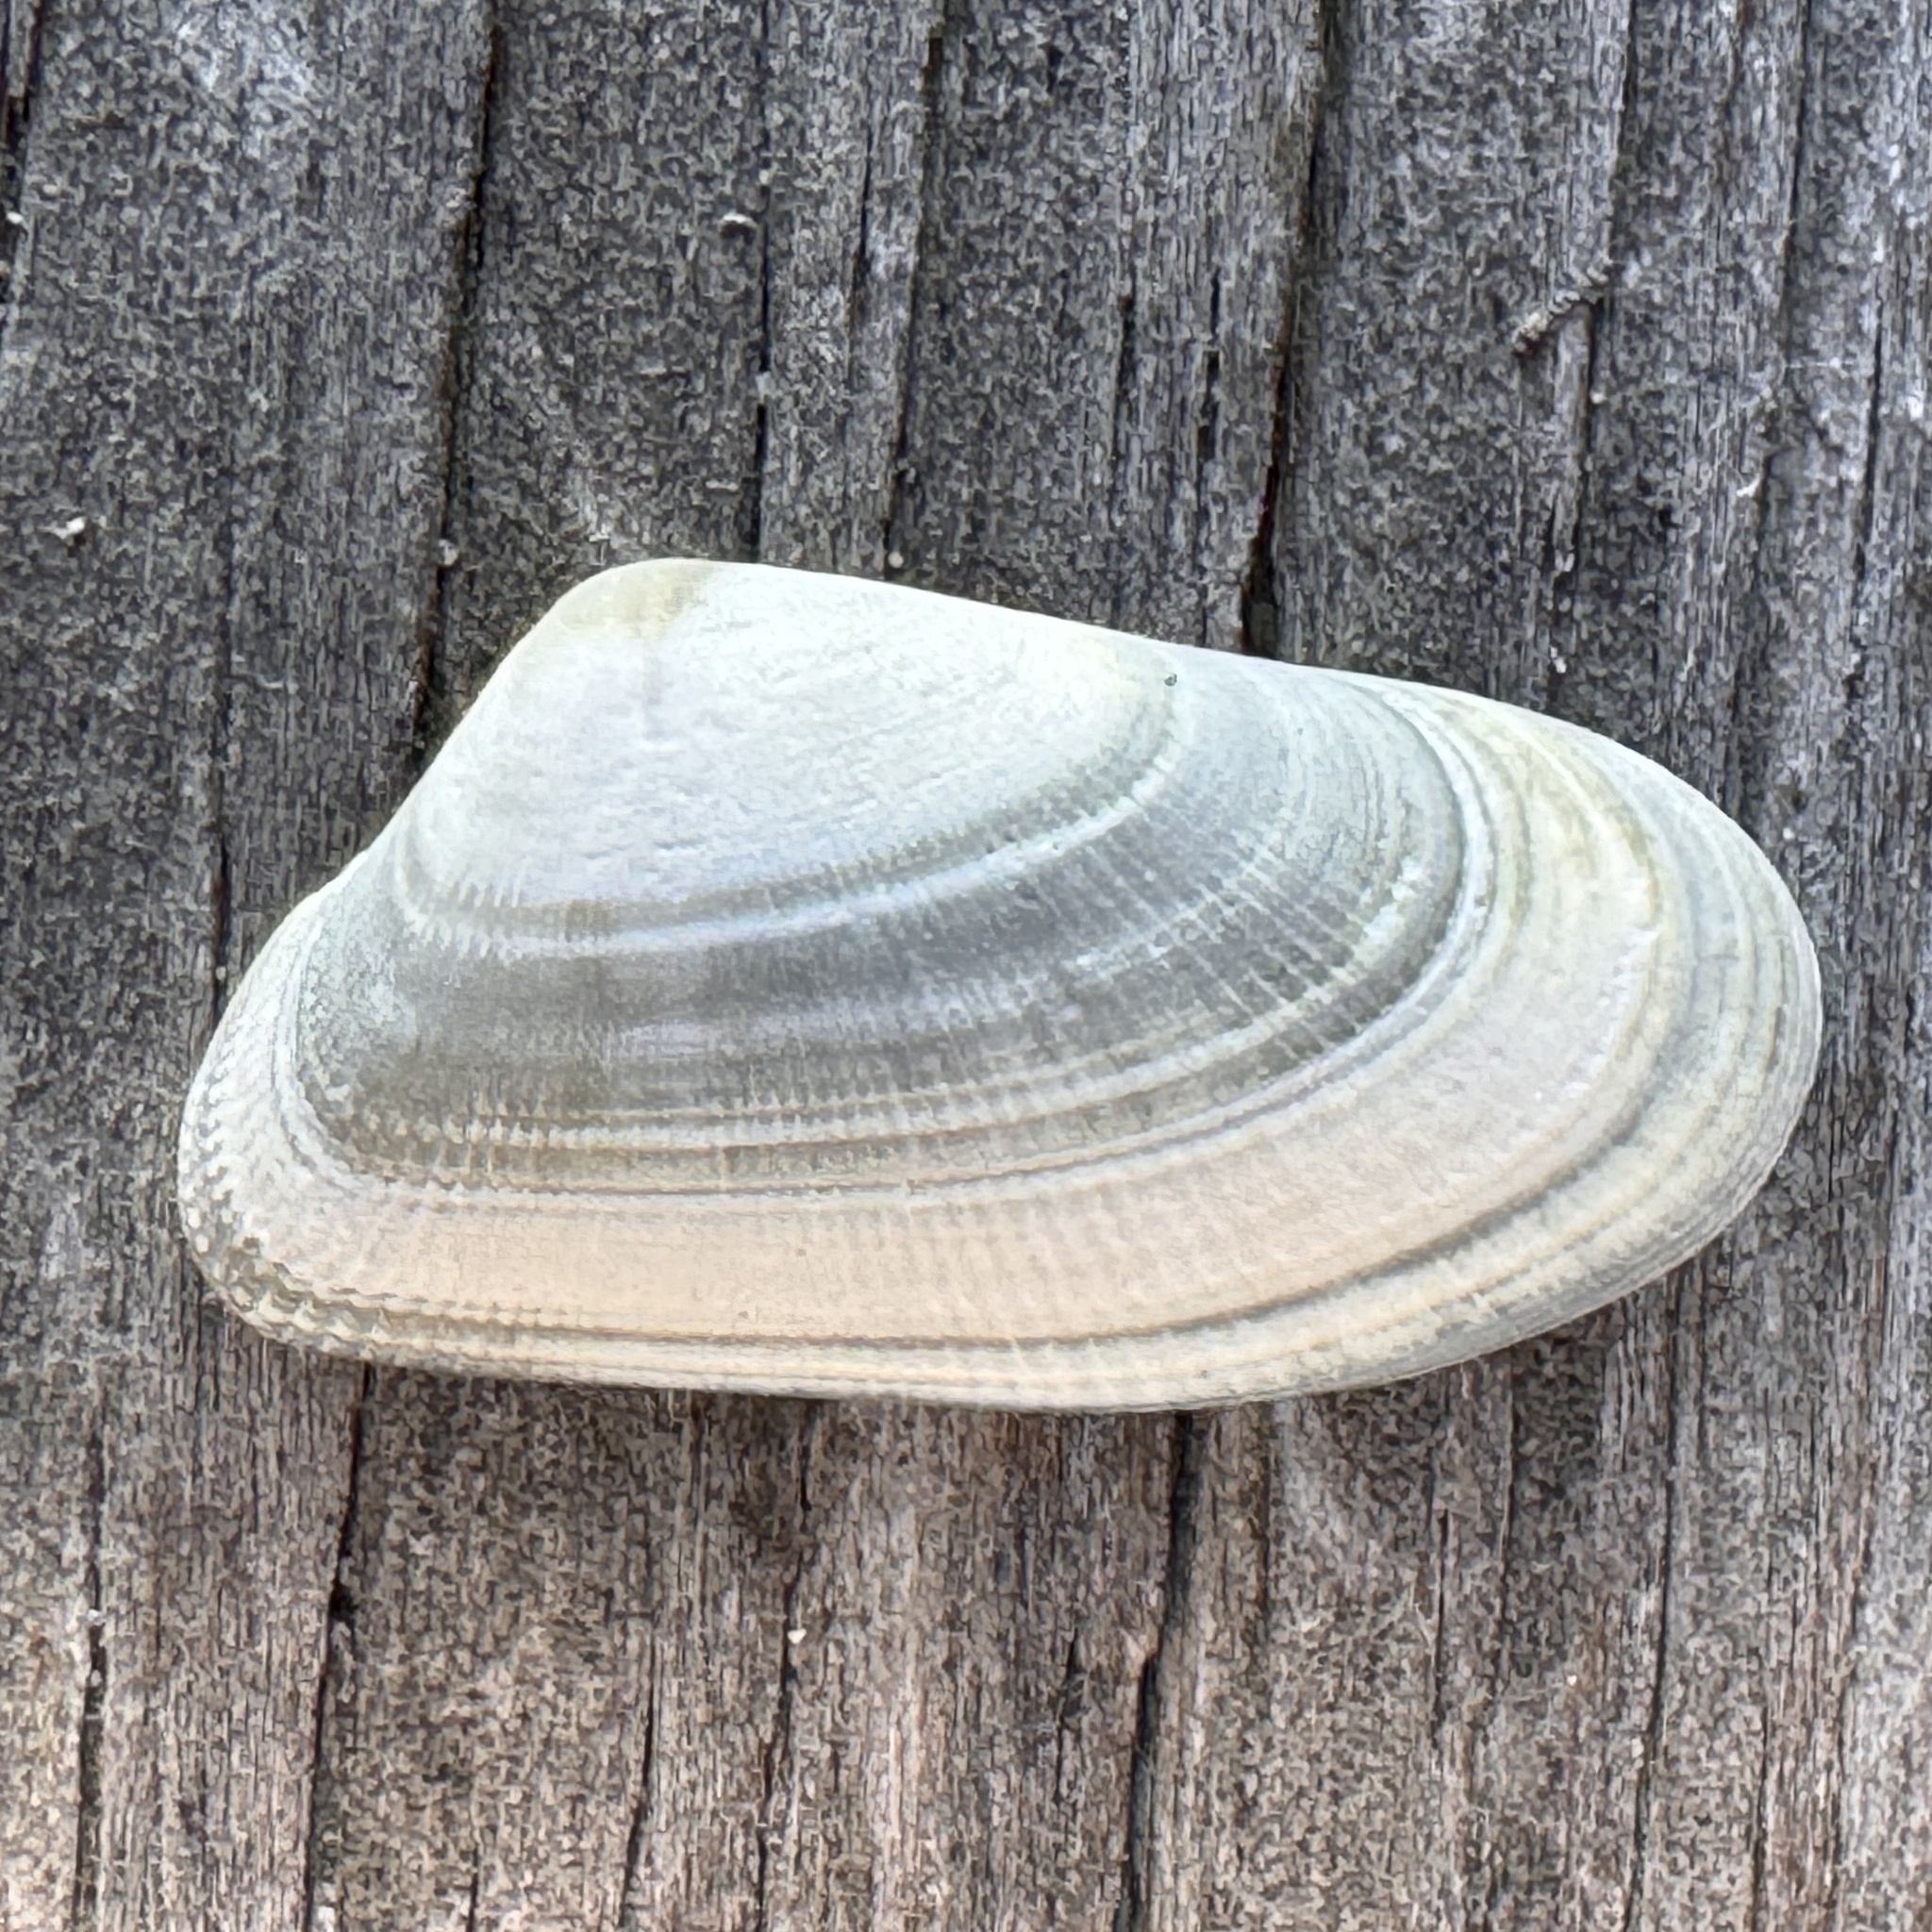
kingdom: Animalia
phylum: Mollusca
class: Bivalvia
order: Cardiida
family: Donacidae
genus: Donax
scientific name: Donax variabilis
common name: Butterfly shell
